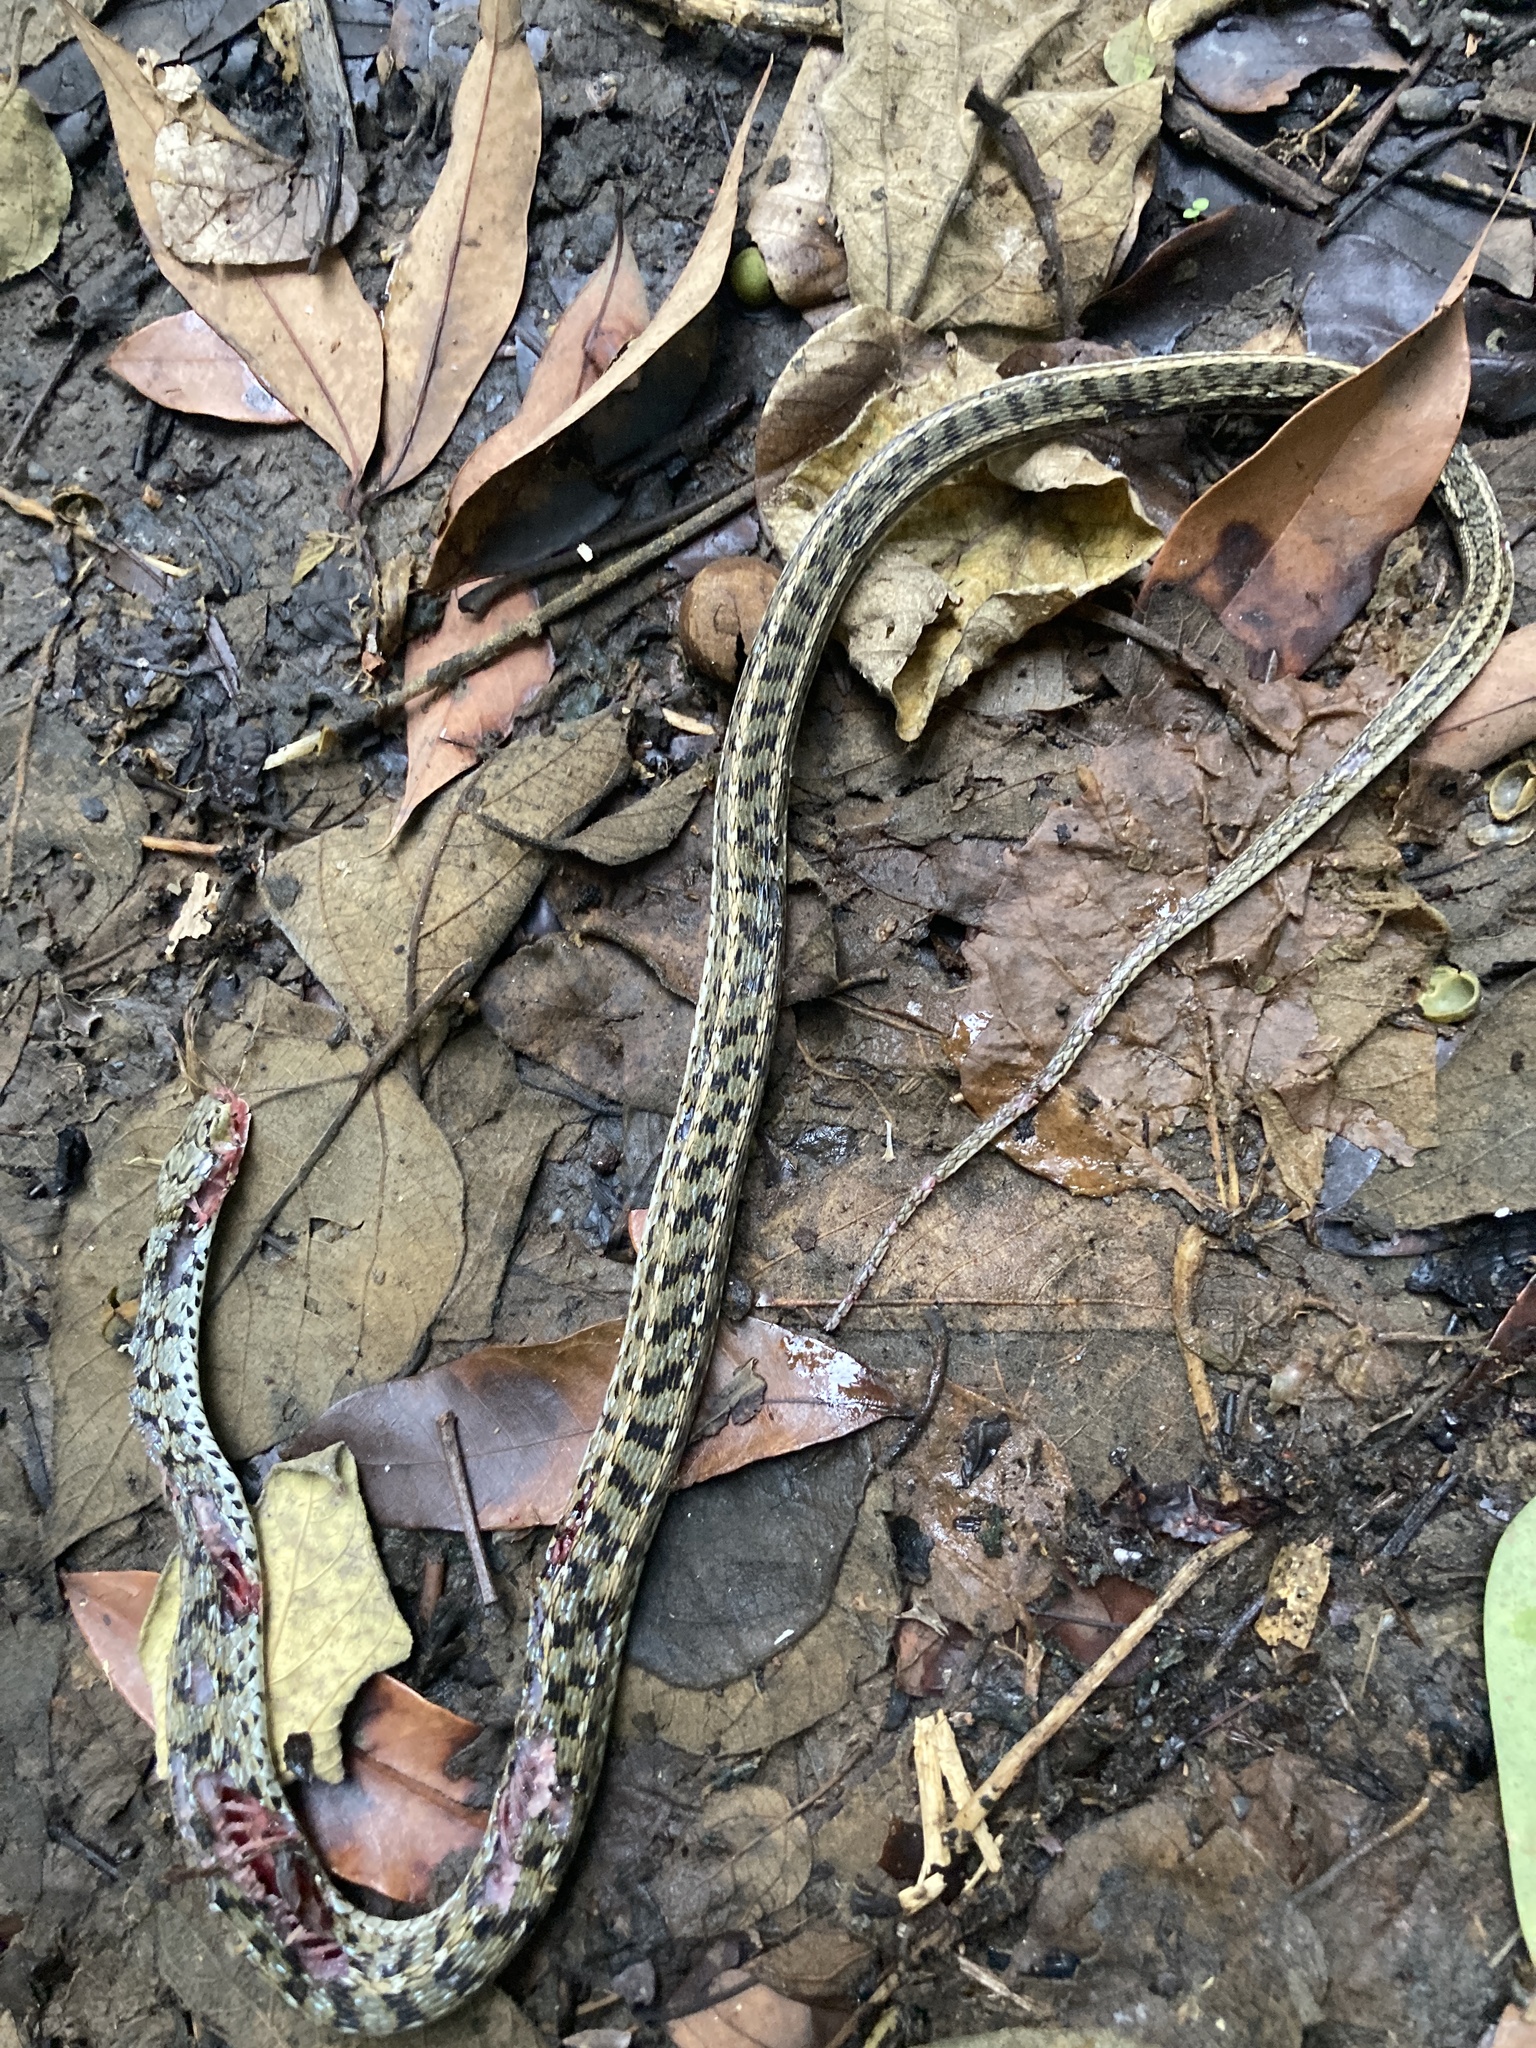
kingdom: Animalia
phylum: Chordata
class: Squamata
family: Colubridae
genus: Amphiesma
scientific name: Amphiesma stolatum
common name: Buff striped keelback
